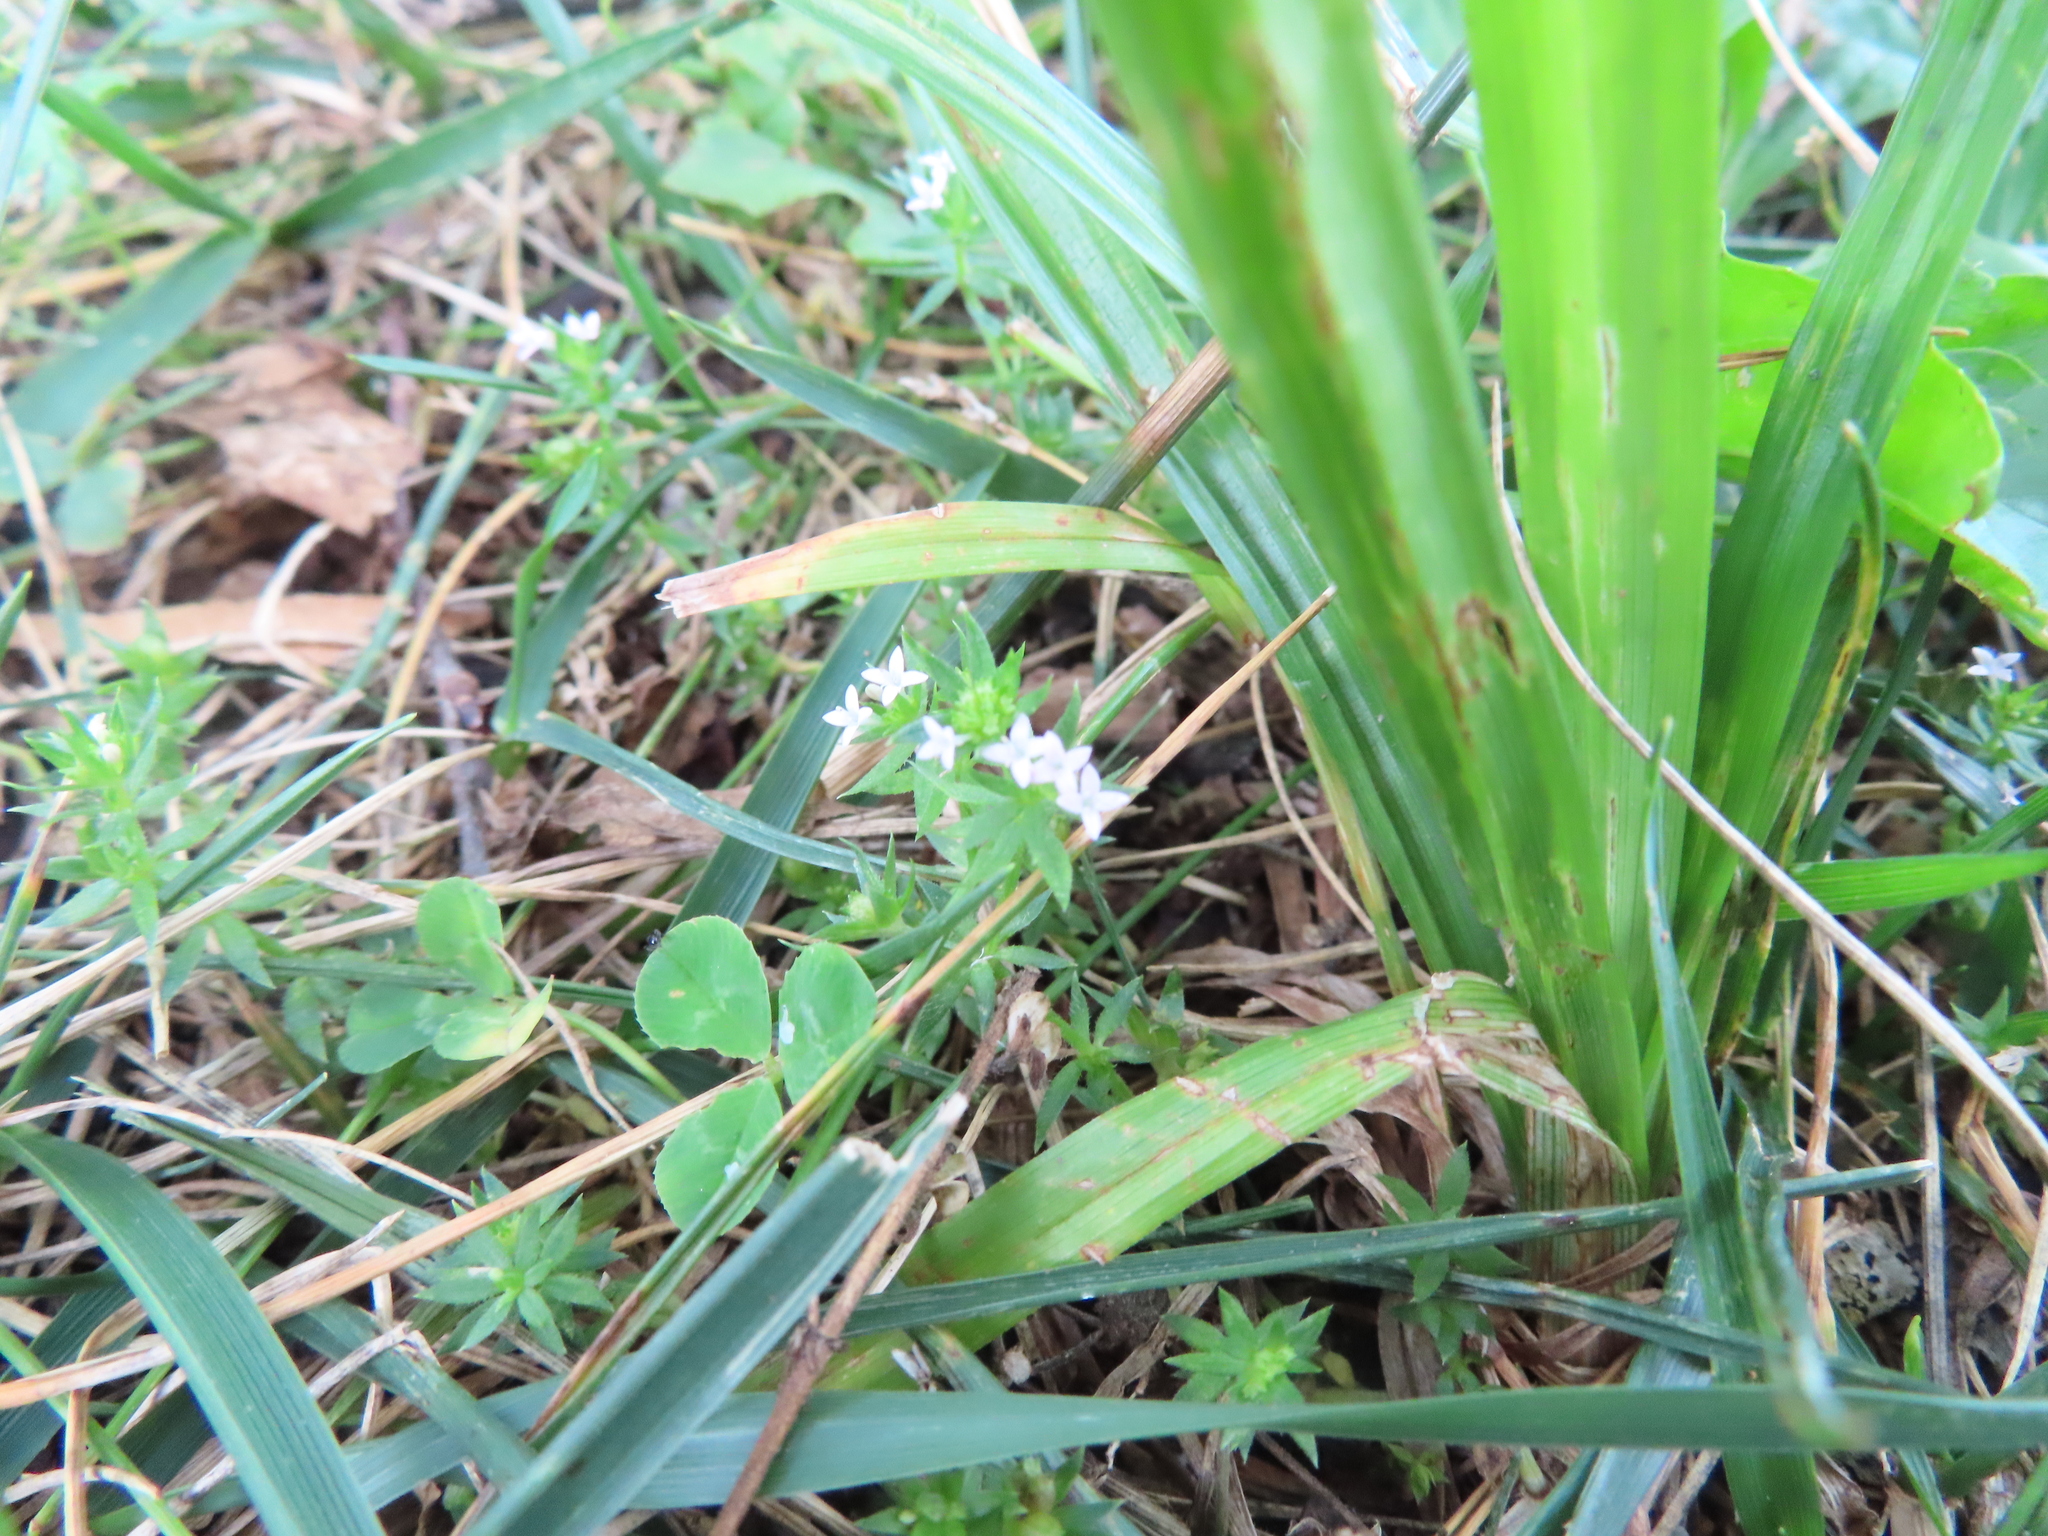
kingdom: Plantae
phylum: Tracheophyta
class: Magnoliopsida
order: Gentianales
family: Rubiaceae
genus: Sherardia
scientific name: Sherardia arvensis
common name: Field madder
